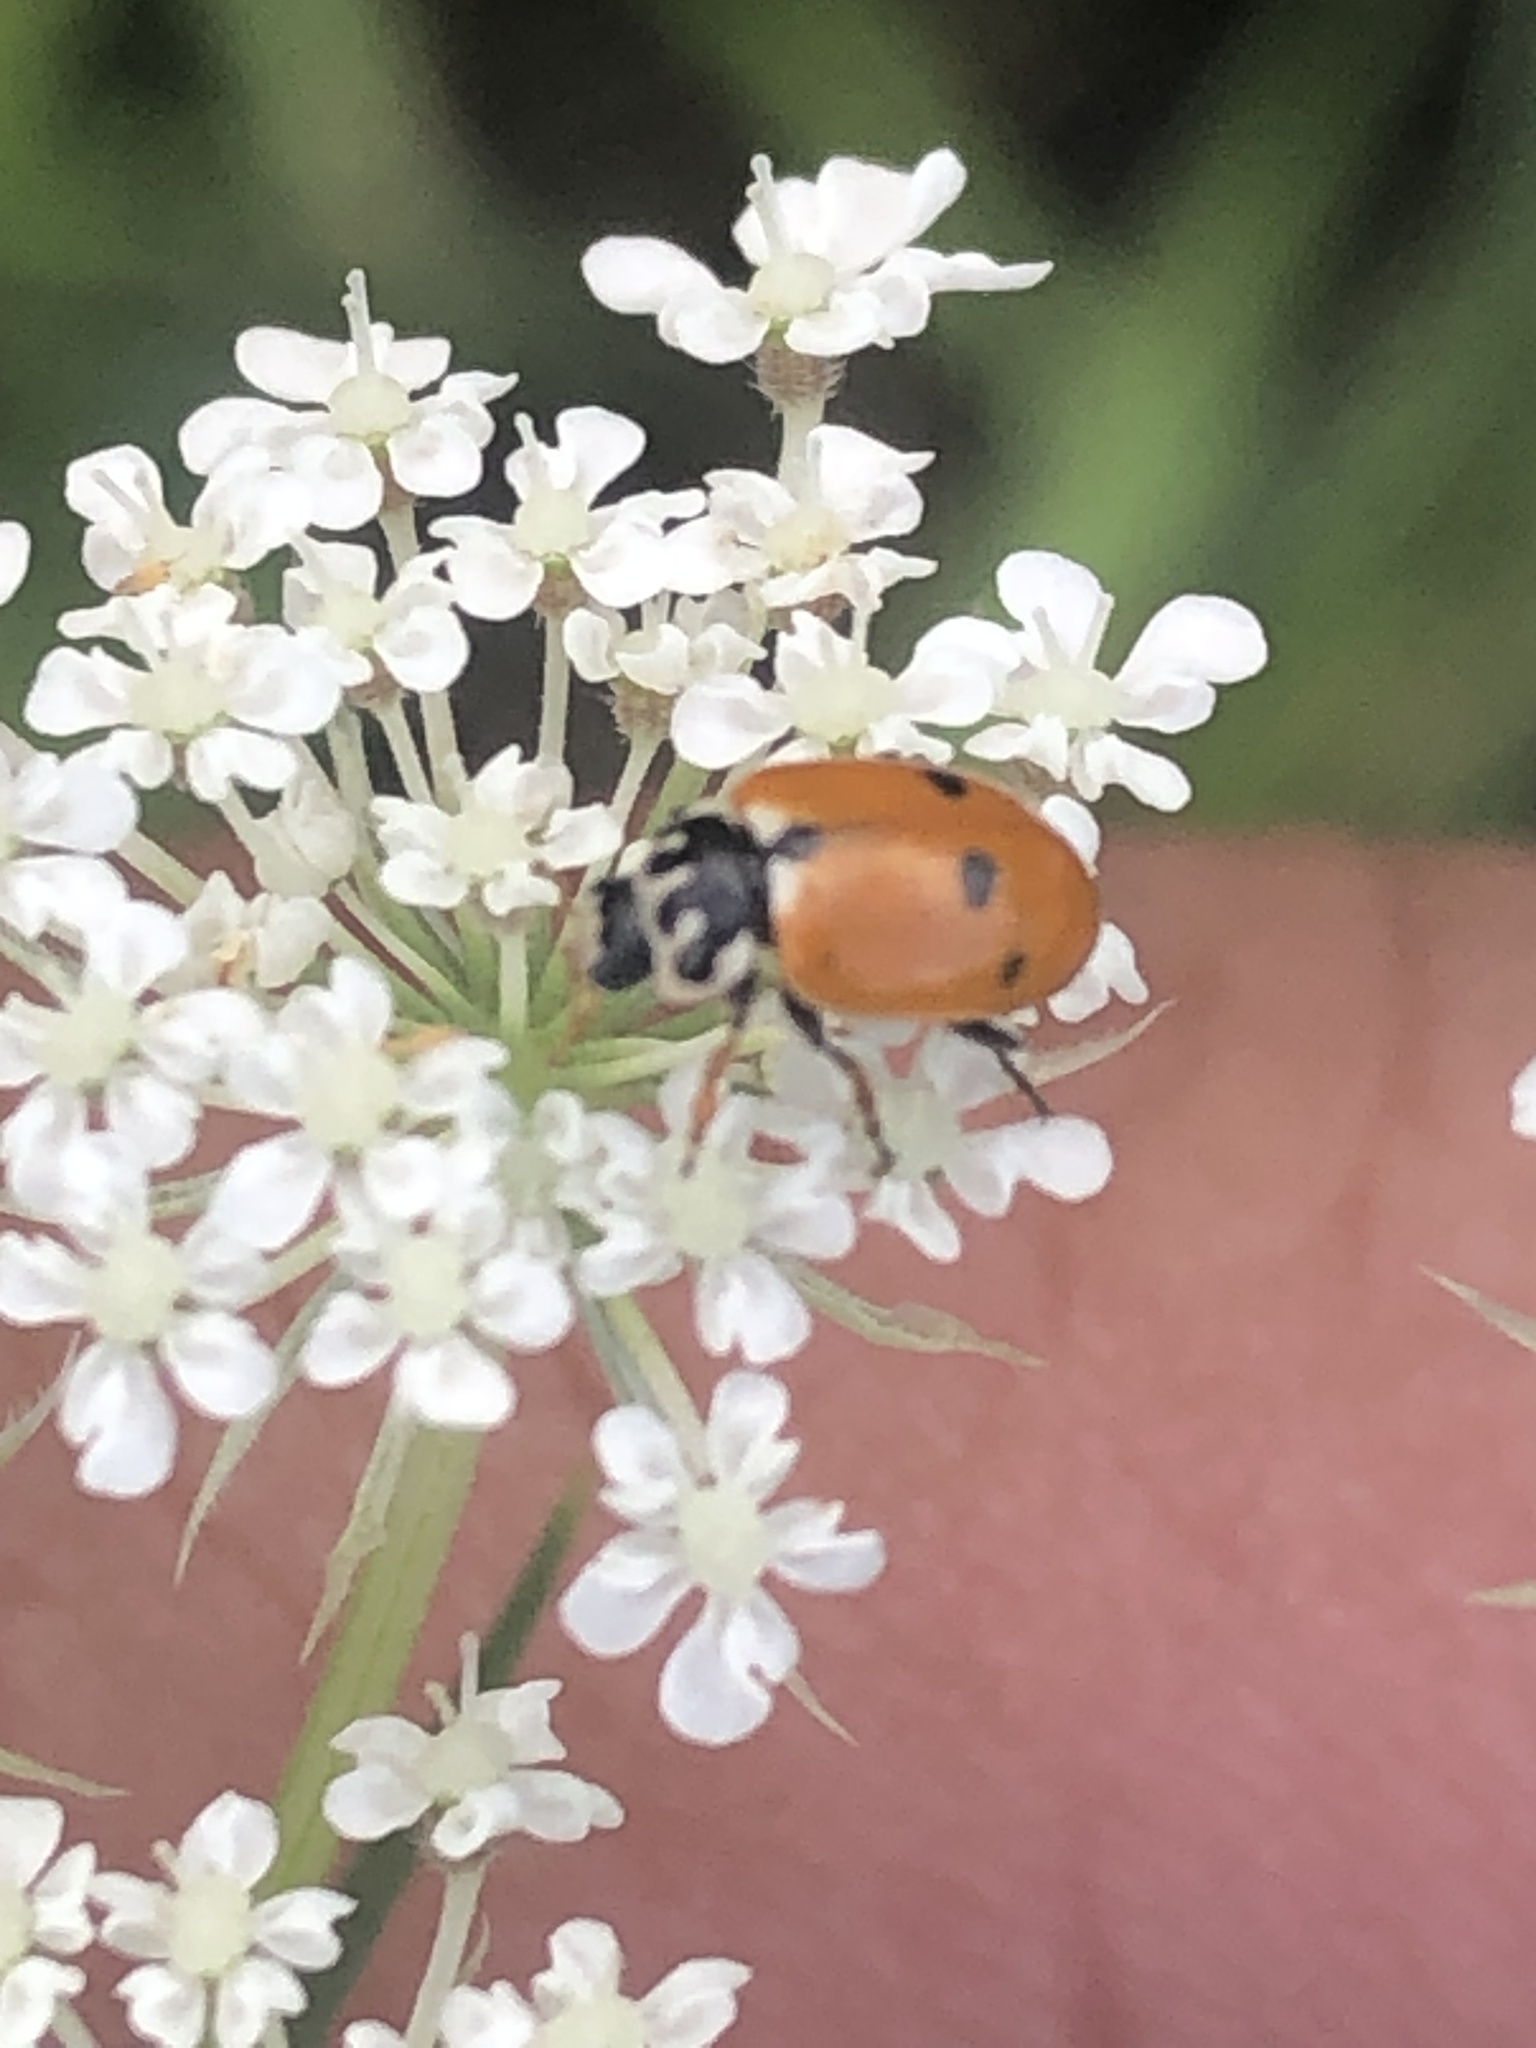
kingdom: Animalia
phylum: Arthropoda
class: Insecta
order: Coleoptera
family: Coccinellidae
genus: Hippodamia
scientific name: Hippodamia variegata
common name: Ladybird beetle
